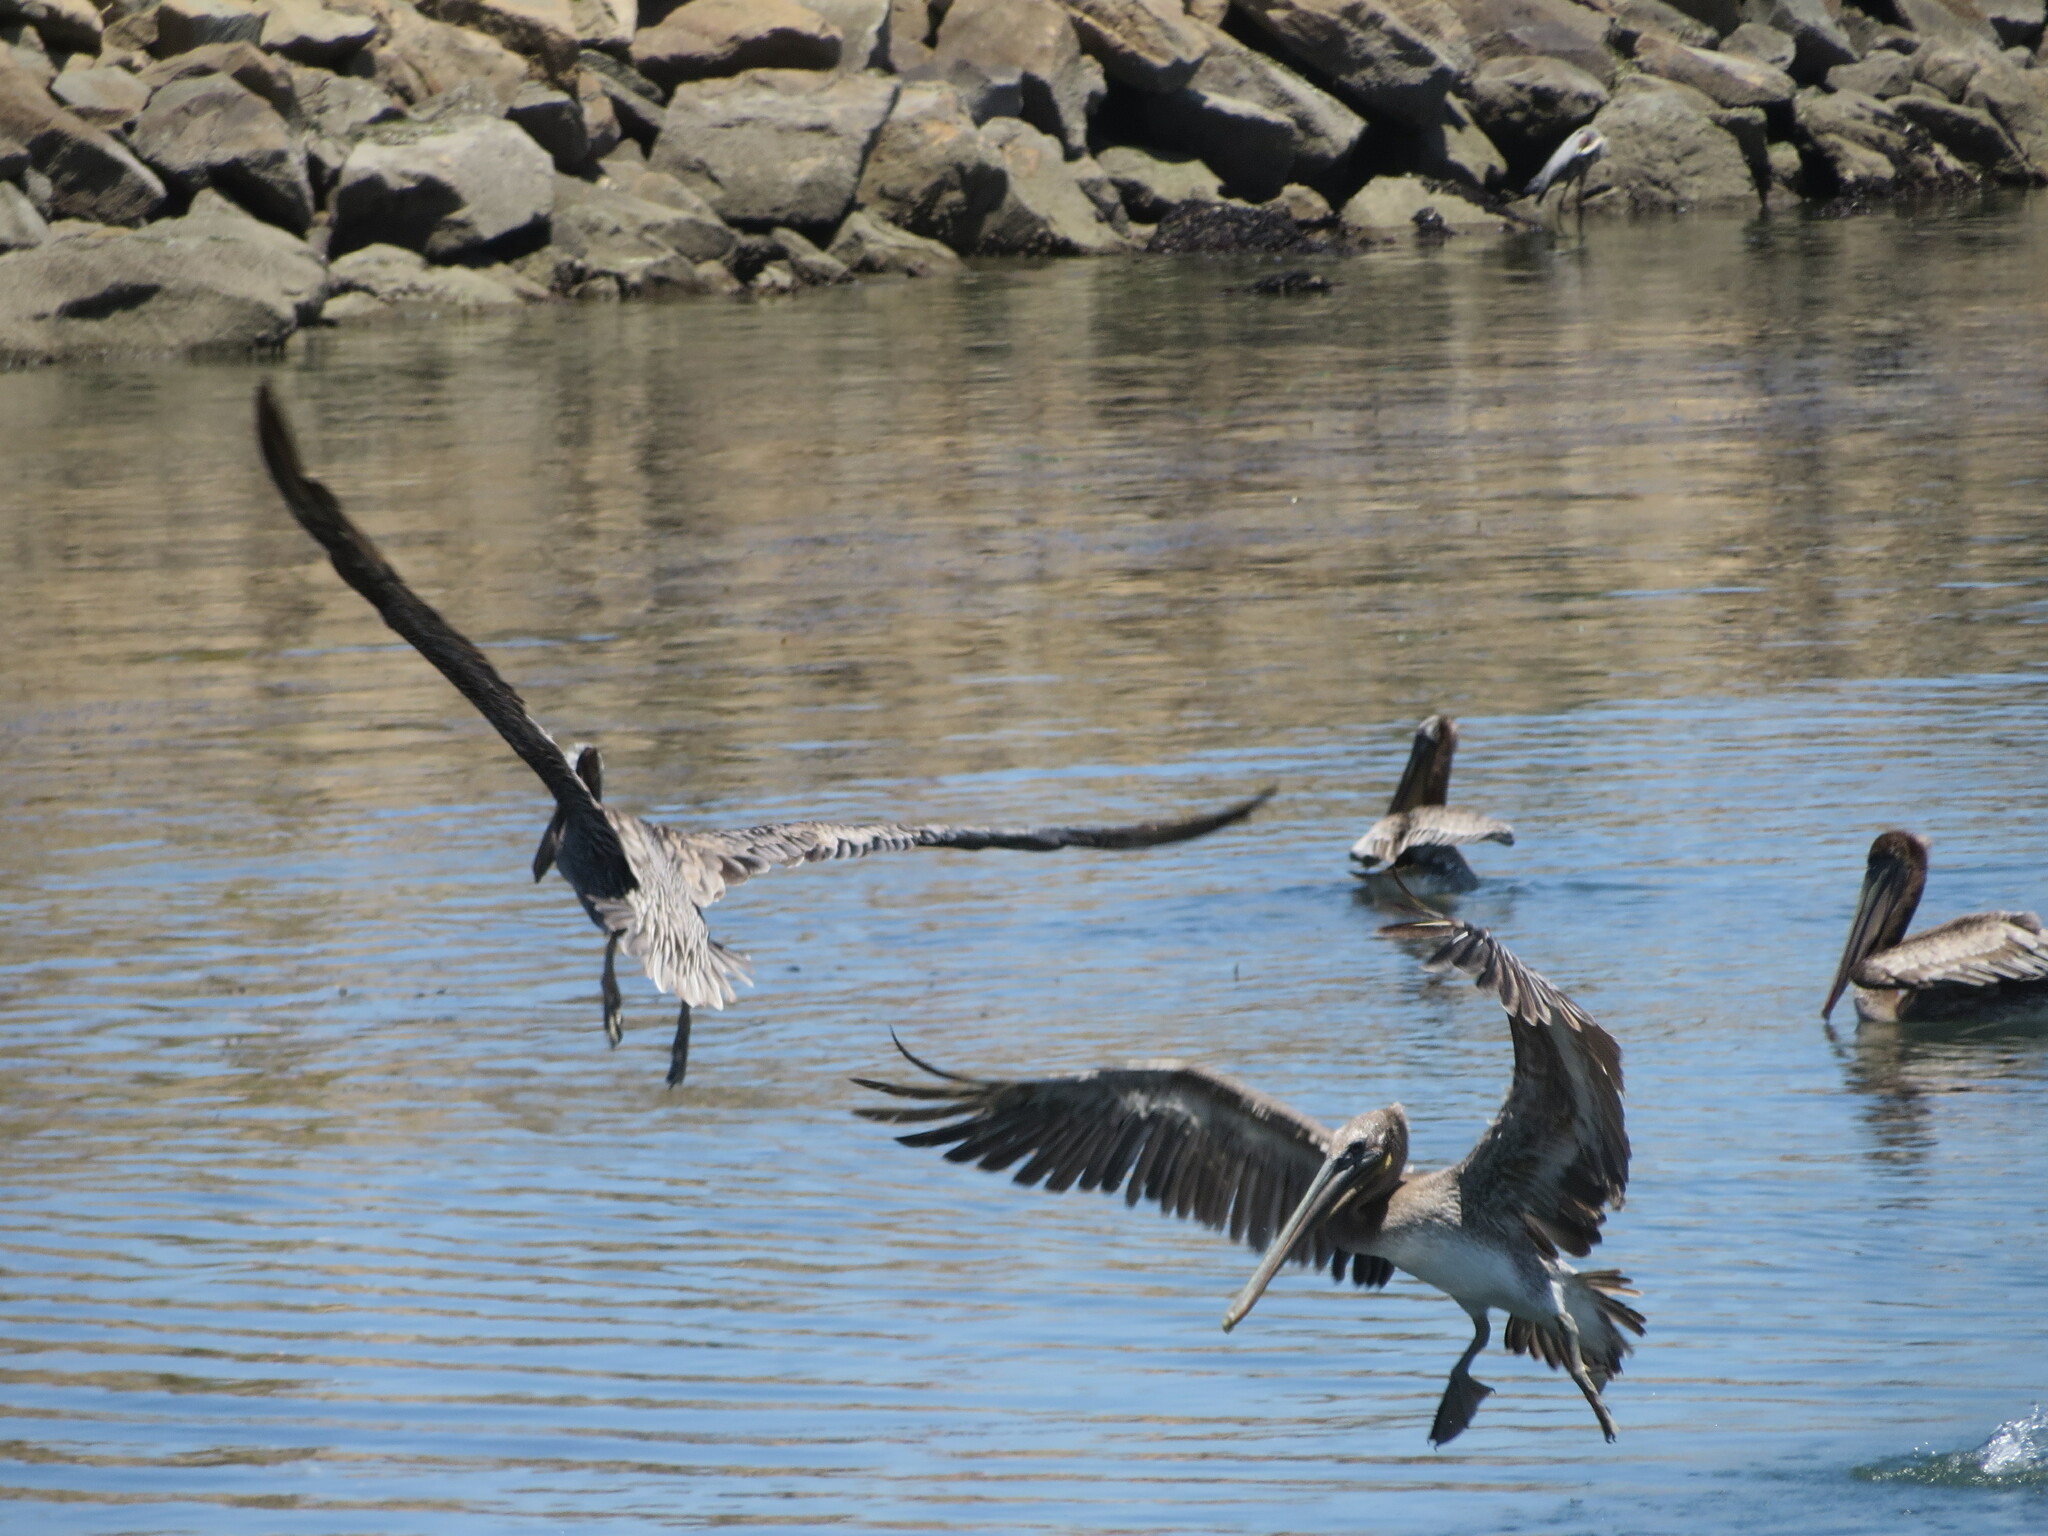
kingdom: Animalia
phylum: Chordata
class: Aves
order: Pelecaniformes
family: Pelecanidae
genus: Pelecanus
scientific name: Pelecanus occidentalis
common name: Brown pelican
